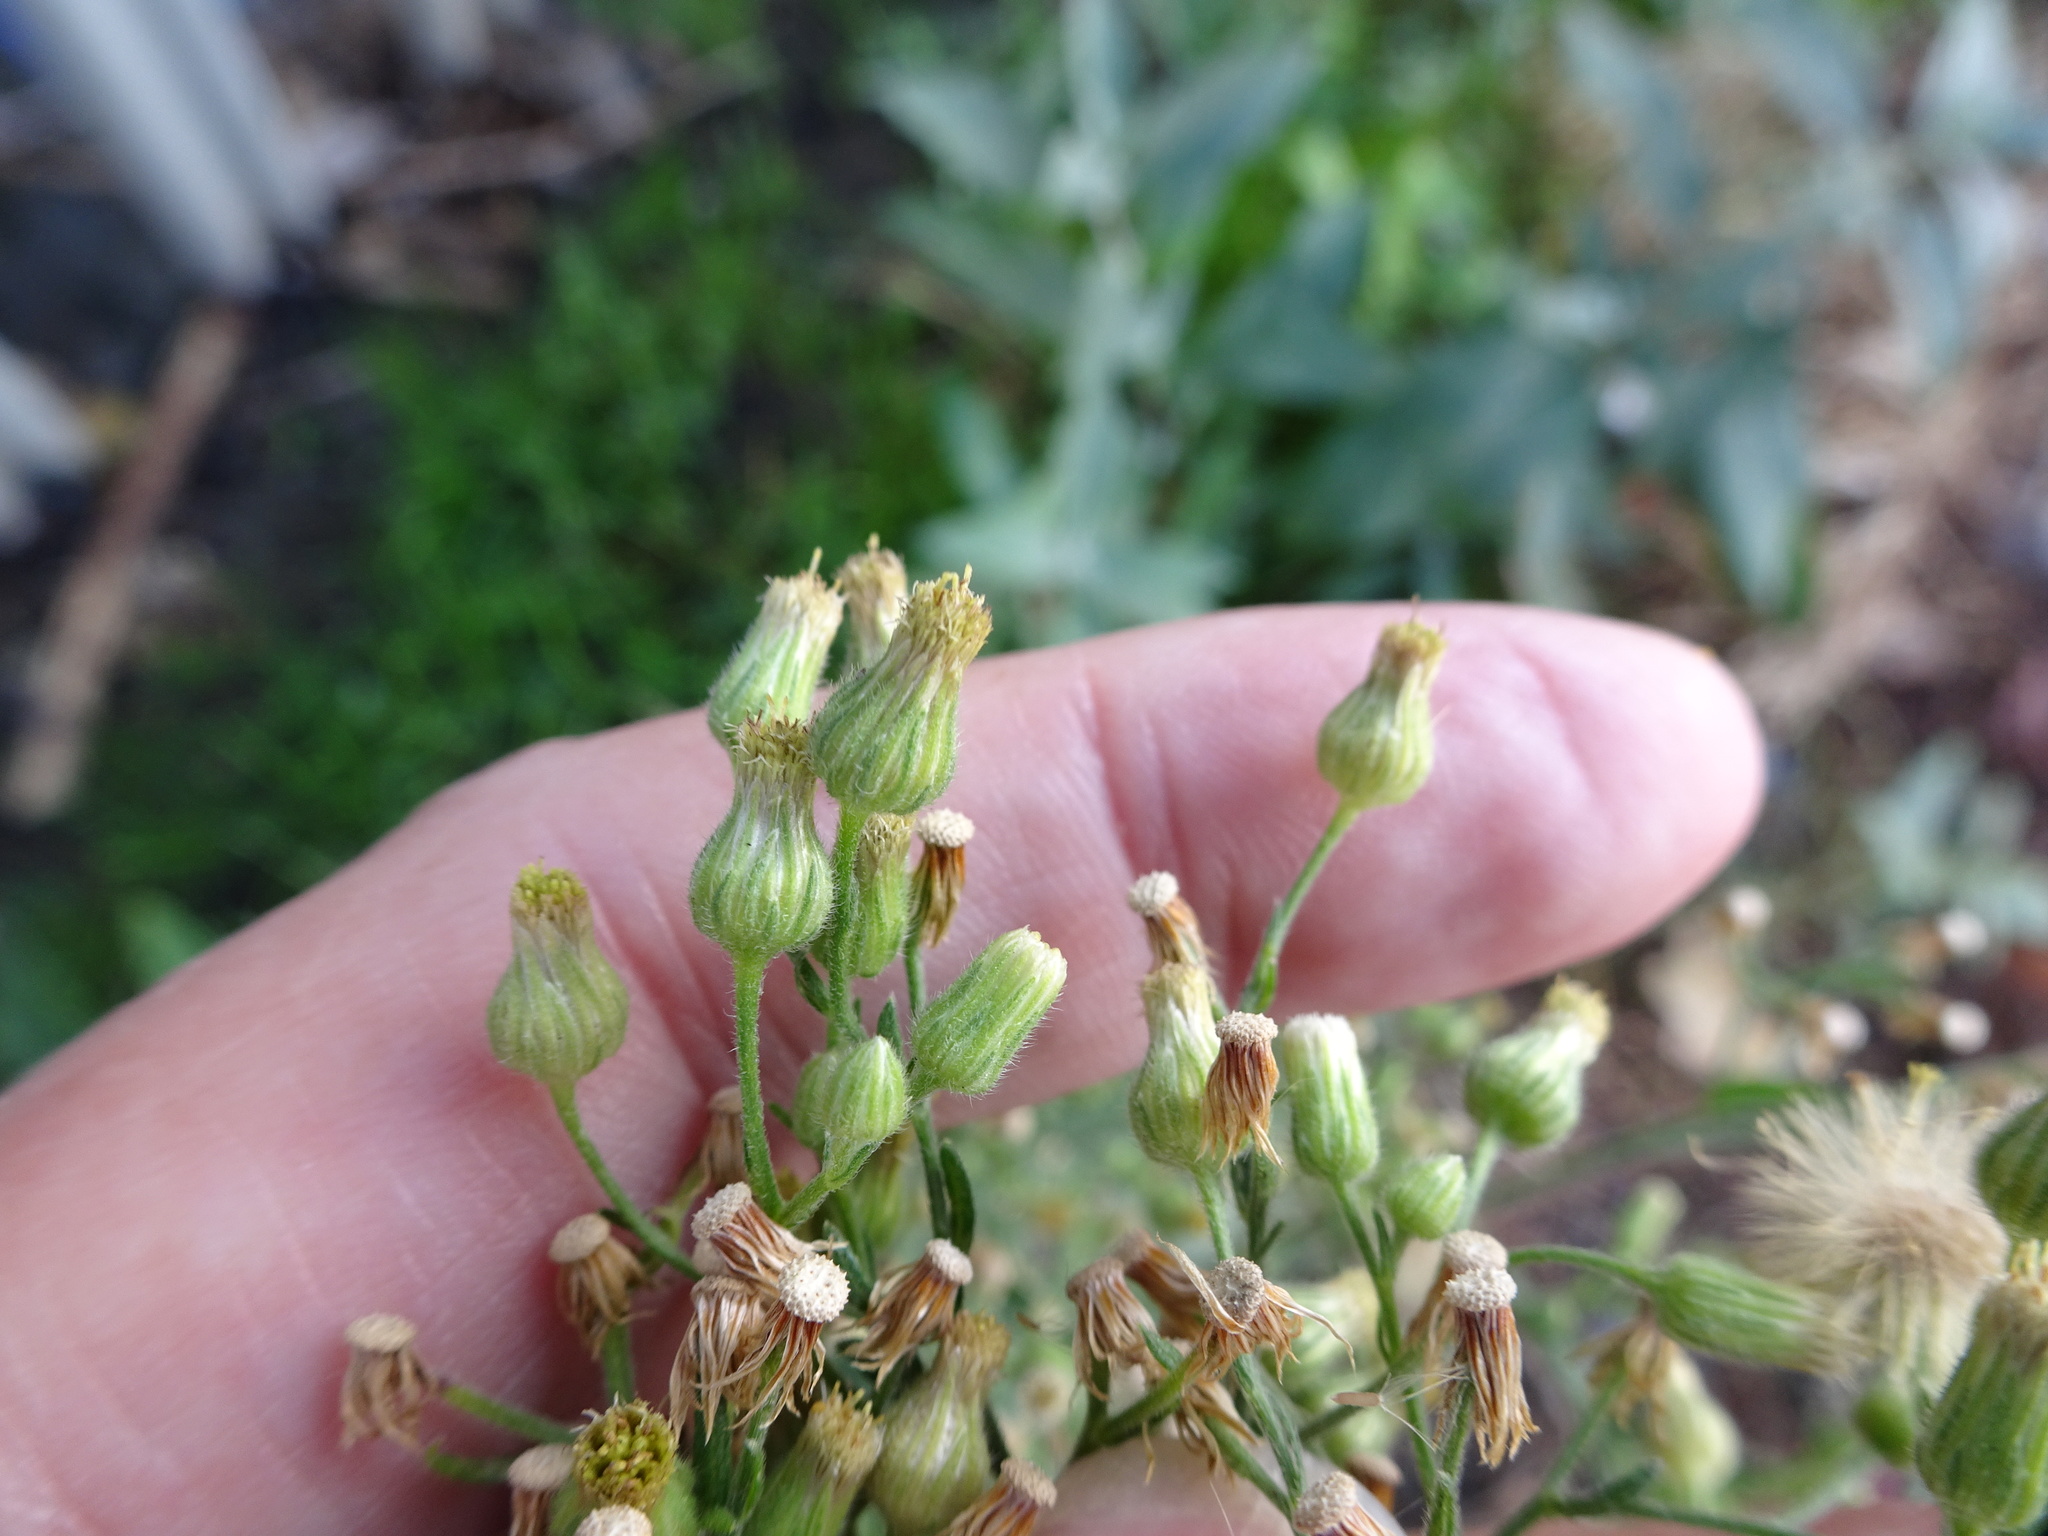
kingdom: Plantae
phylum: Tracheophyta
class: Magnoliopsida
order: Asterales
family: Asteraceae
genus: Erigeron
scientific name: Erigeron sumatrensis
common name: Daisy
